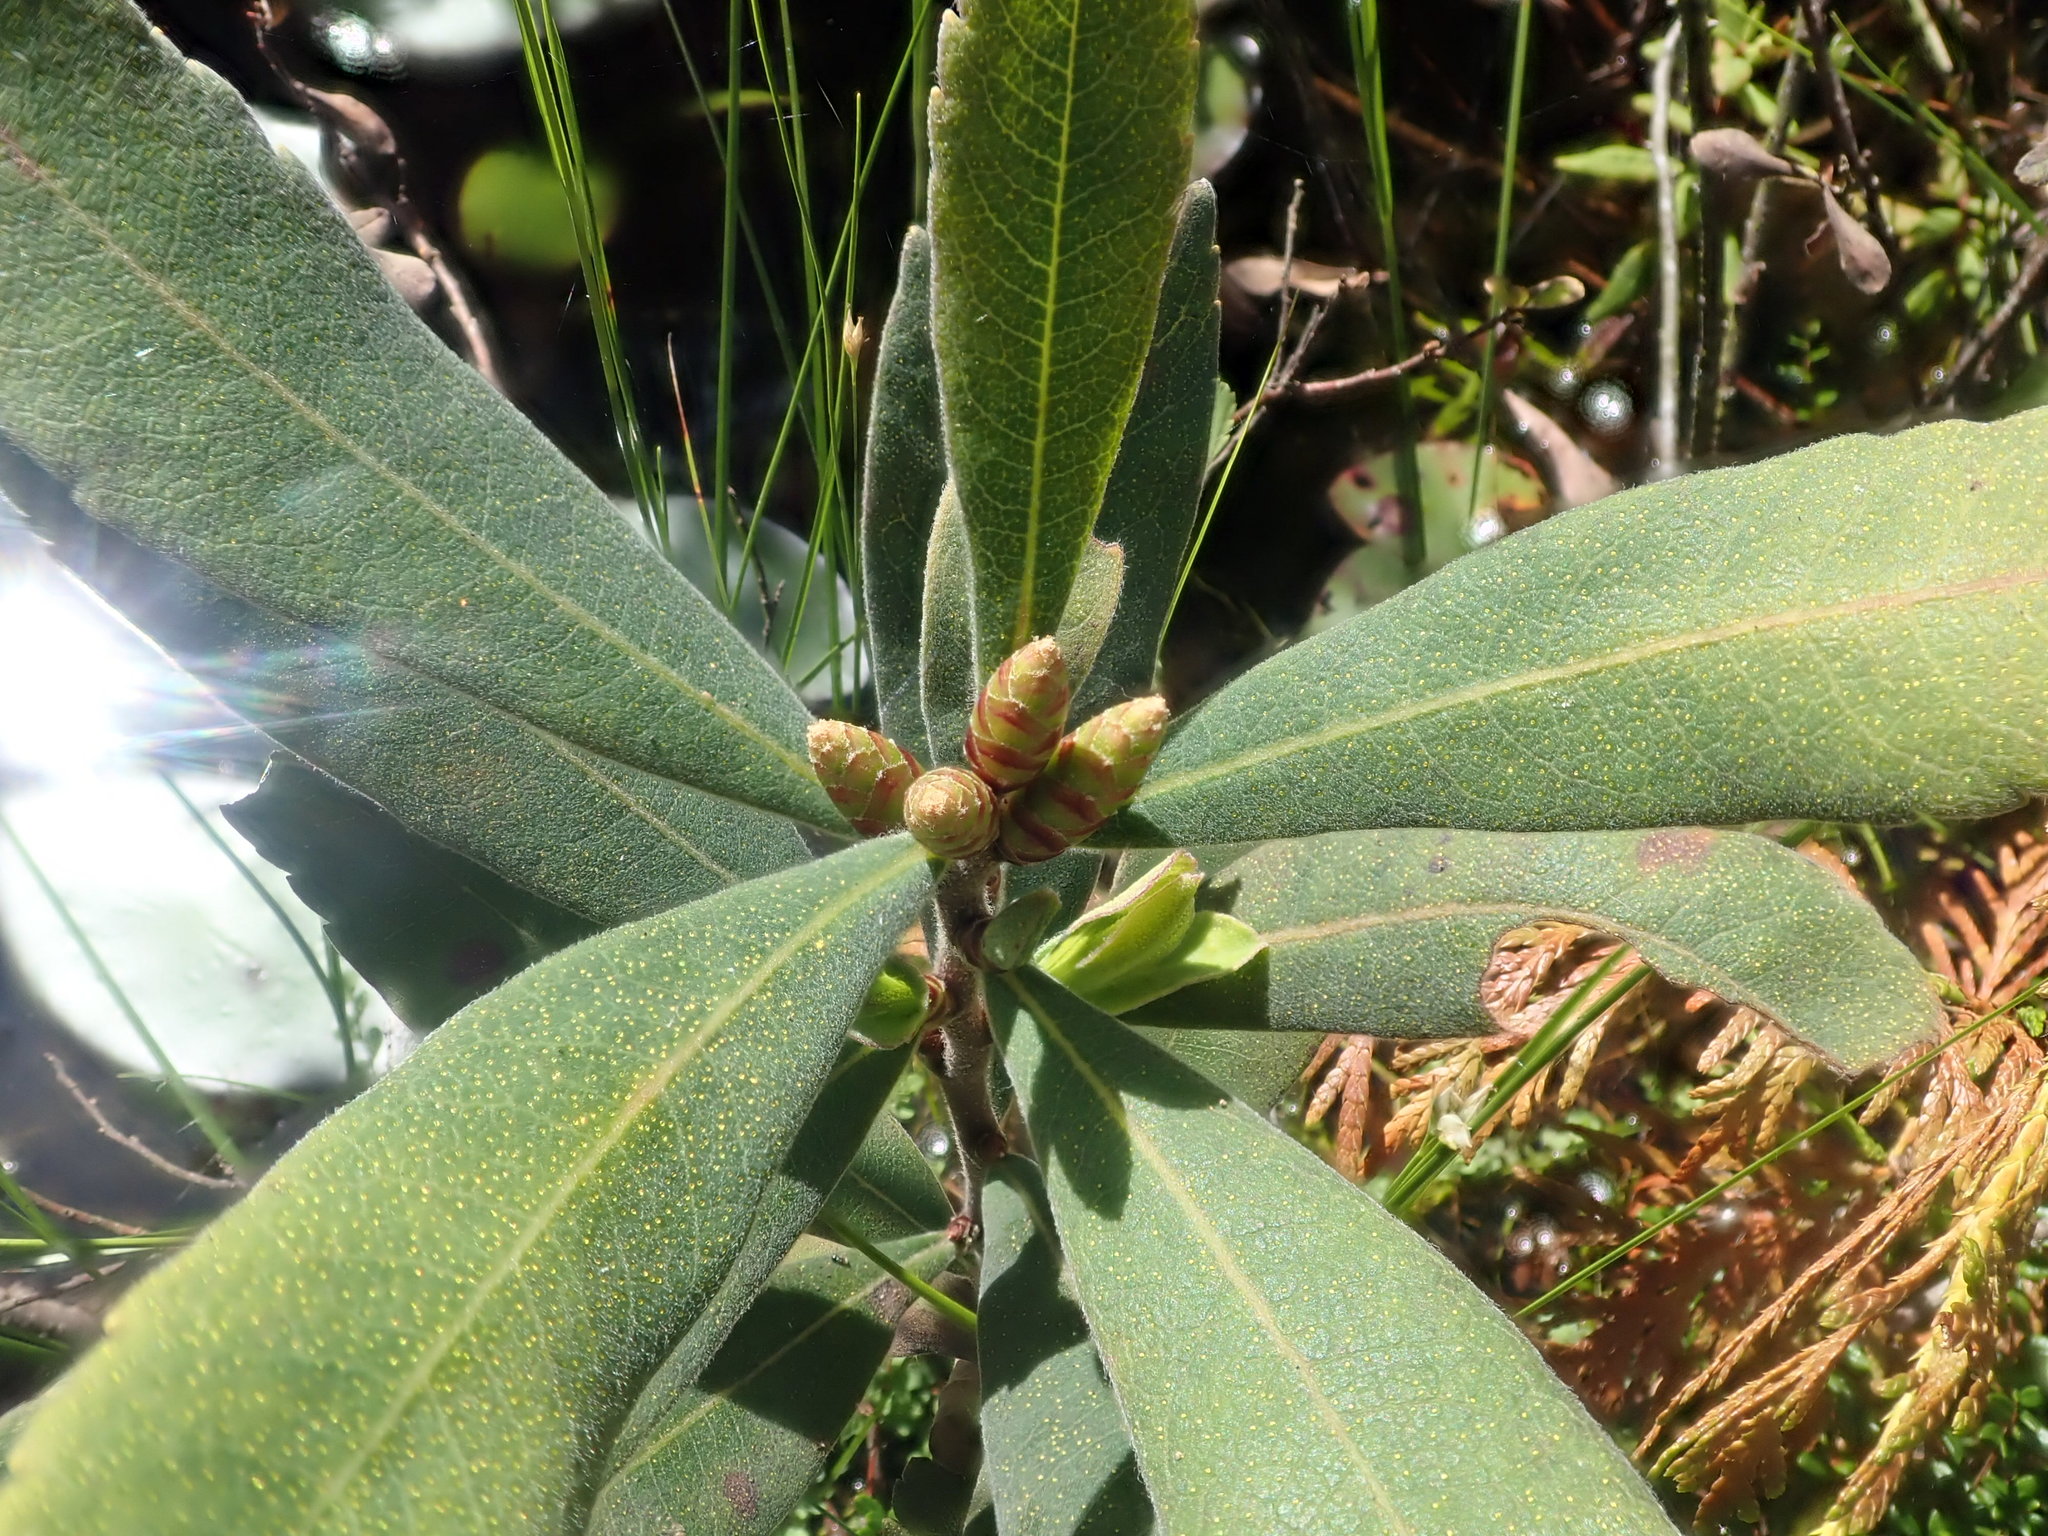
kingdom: Plantae
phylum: Tracheophyta
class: Magnoliopsida
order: Fagales
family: Myricaceae
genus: Myrica
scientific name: Myrica gale
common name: Sweet gale
